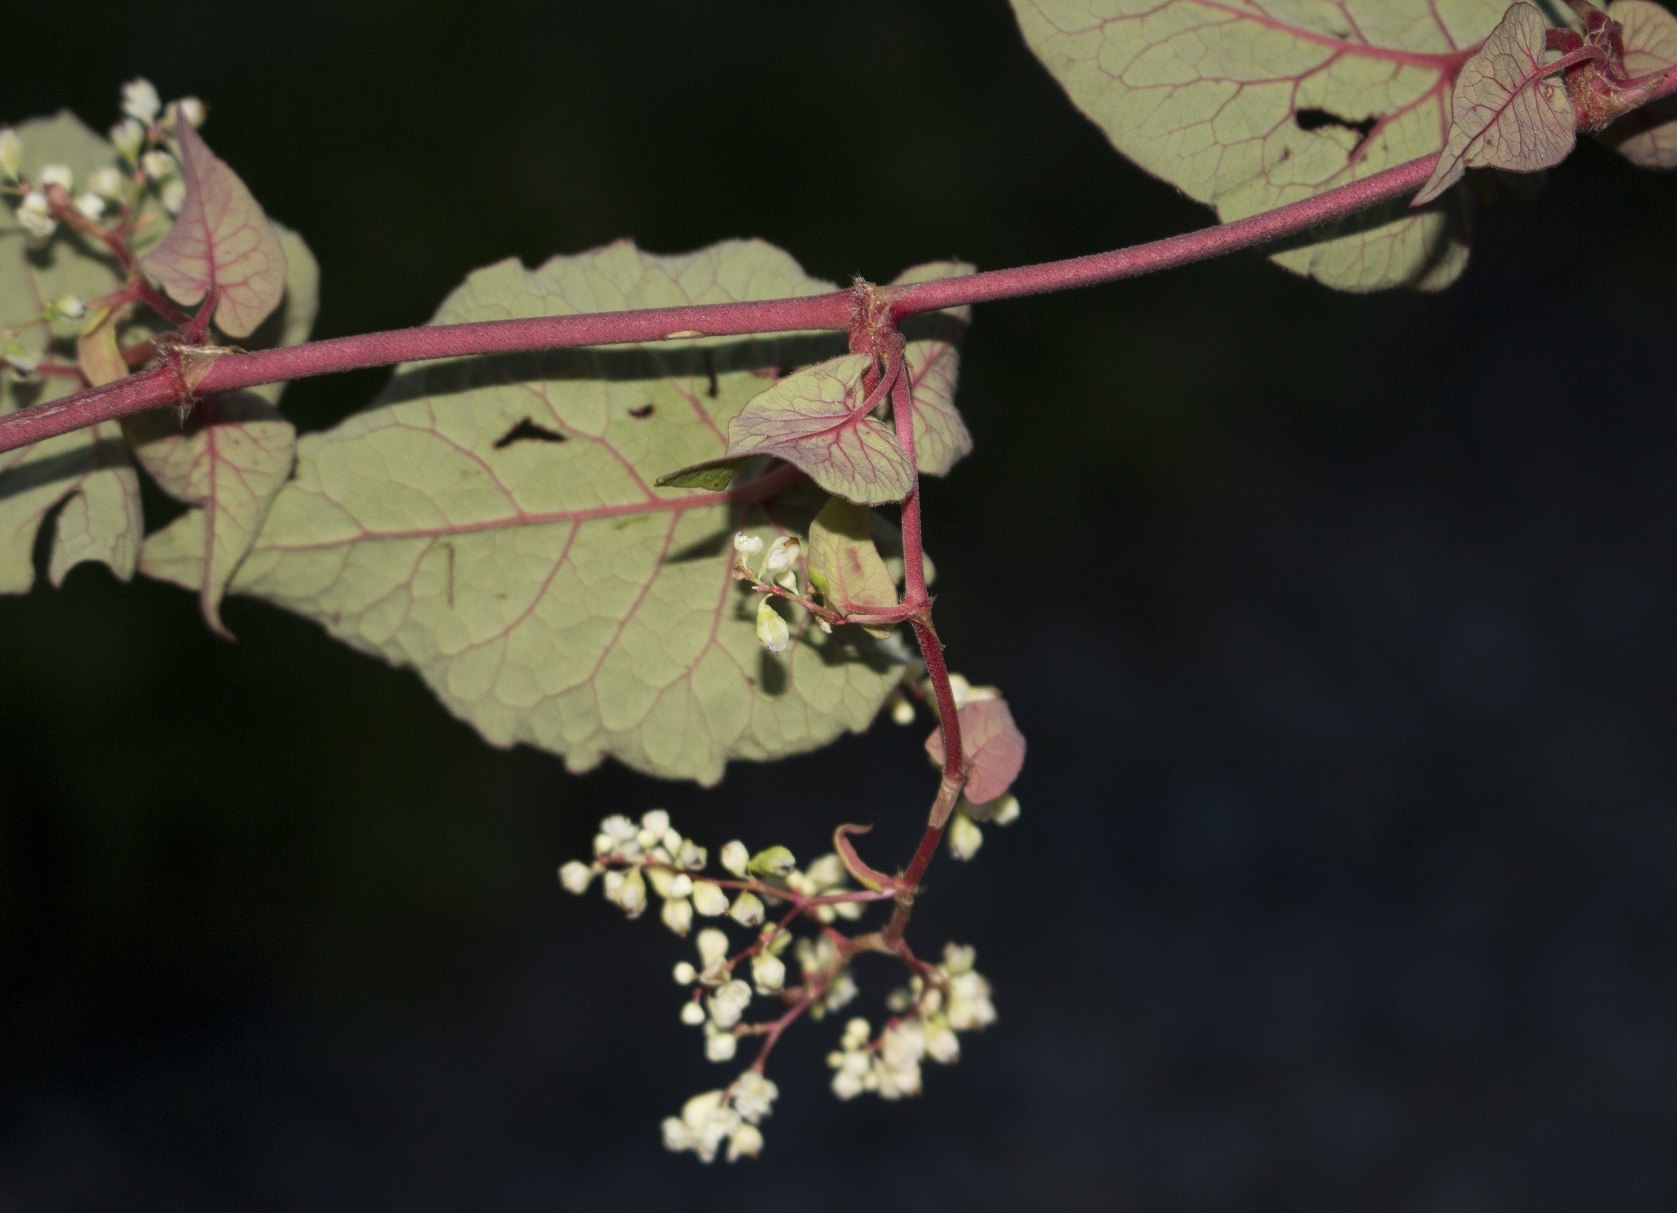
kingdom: Plantae
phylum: Tracheophyta
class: Magnoliopsida
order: Caryophyllales
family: Polygonaceae
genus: Parogonum
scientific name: Parogonum ciliinode
